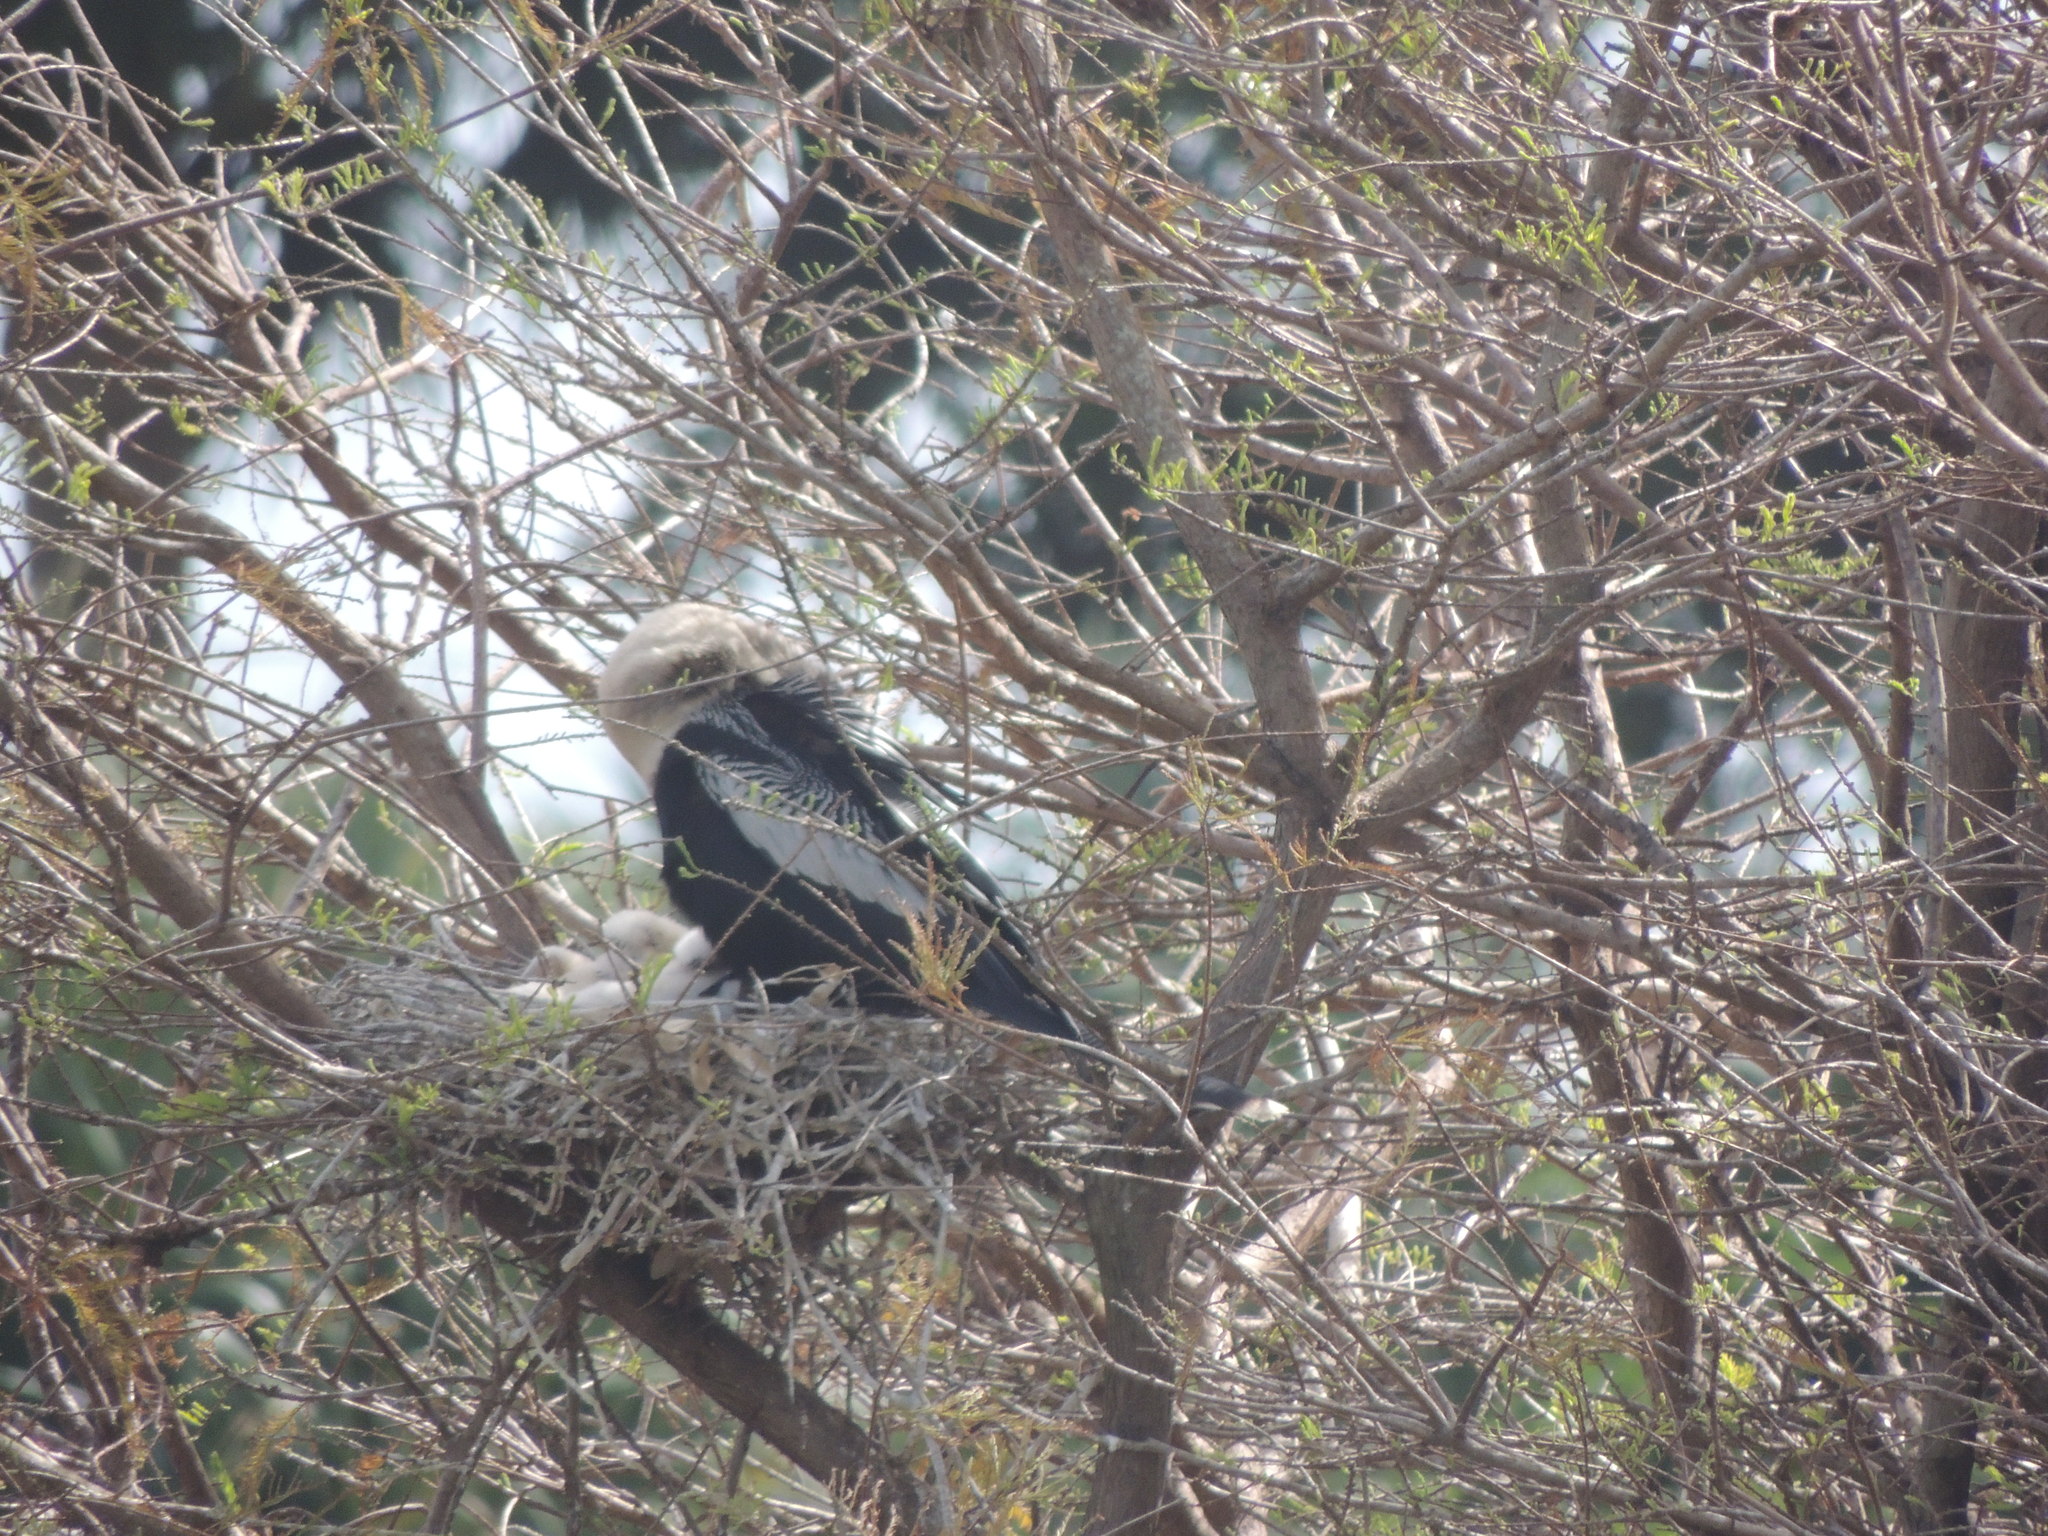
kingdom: Animalia
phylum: Chordata
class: Aves
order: Suliformes
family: Anhingidae
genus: Anhinga
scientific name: Anhinga anhinga
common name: Anhinga
